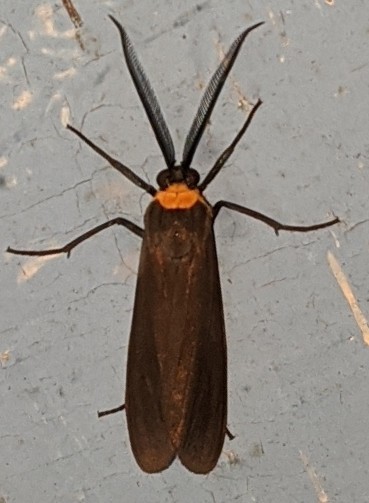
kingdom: Animalia
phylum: Arthropoda
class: Insecta
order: Lepidoptera
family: Erebidae
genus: Cisseps
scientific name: Cisseps fulvicollis
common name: Yellow-collared scape moth
